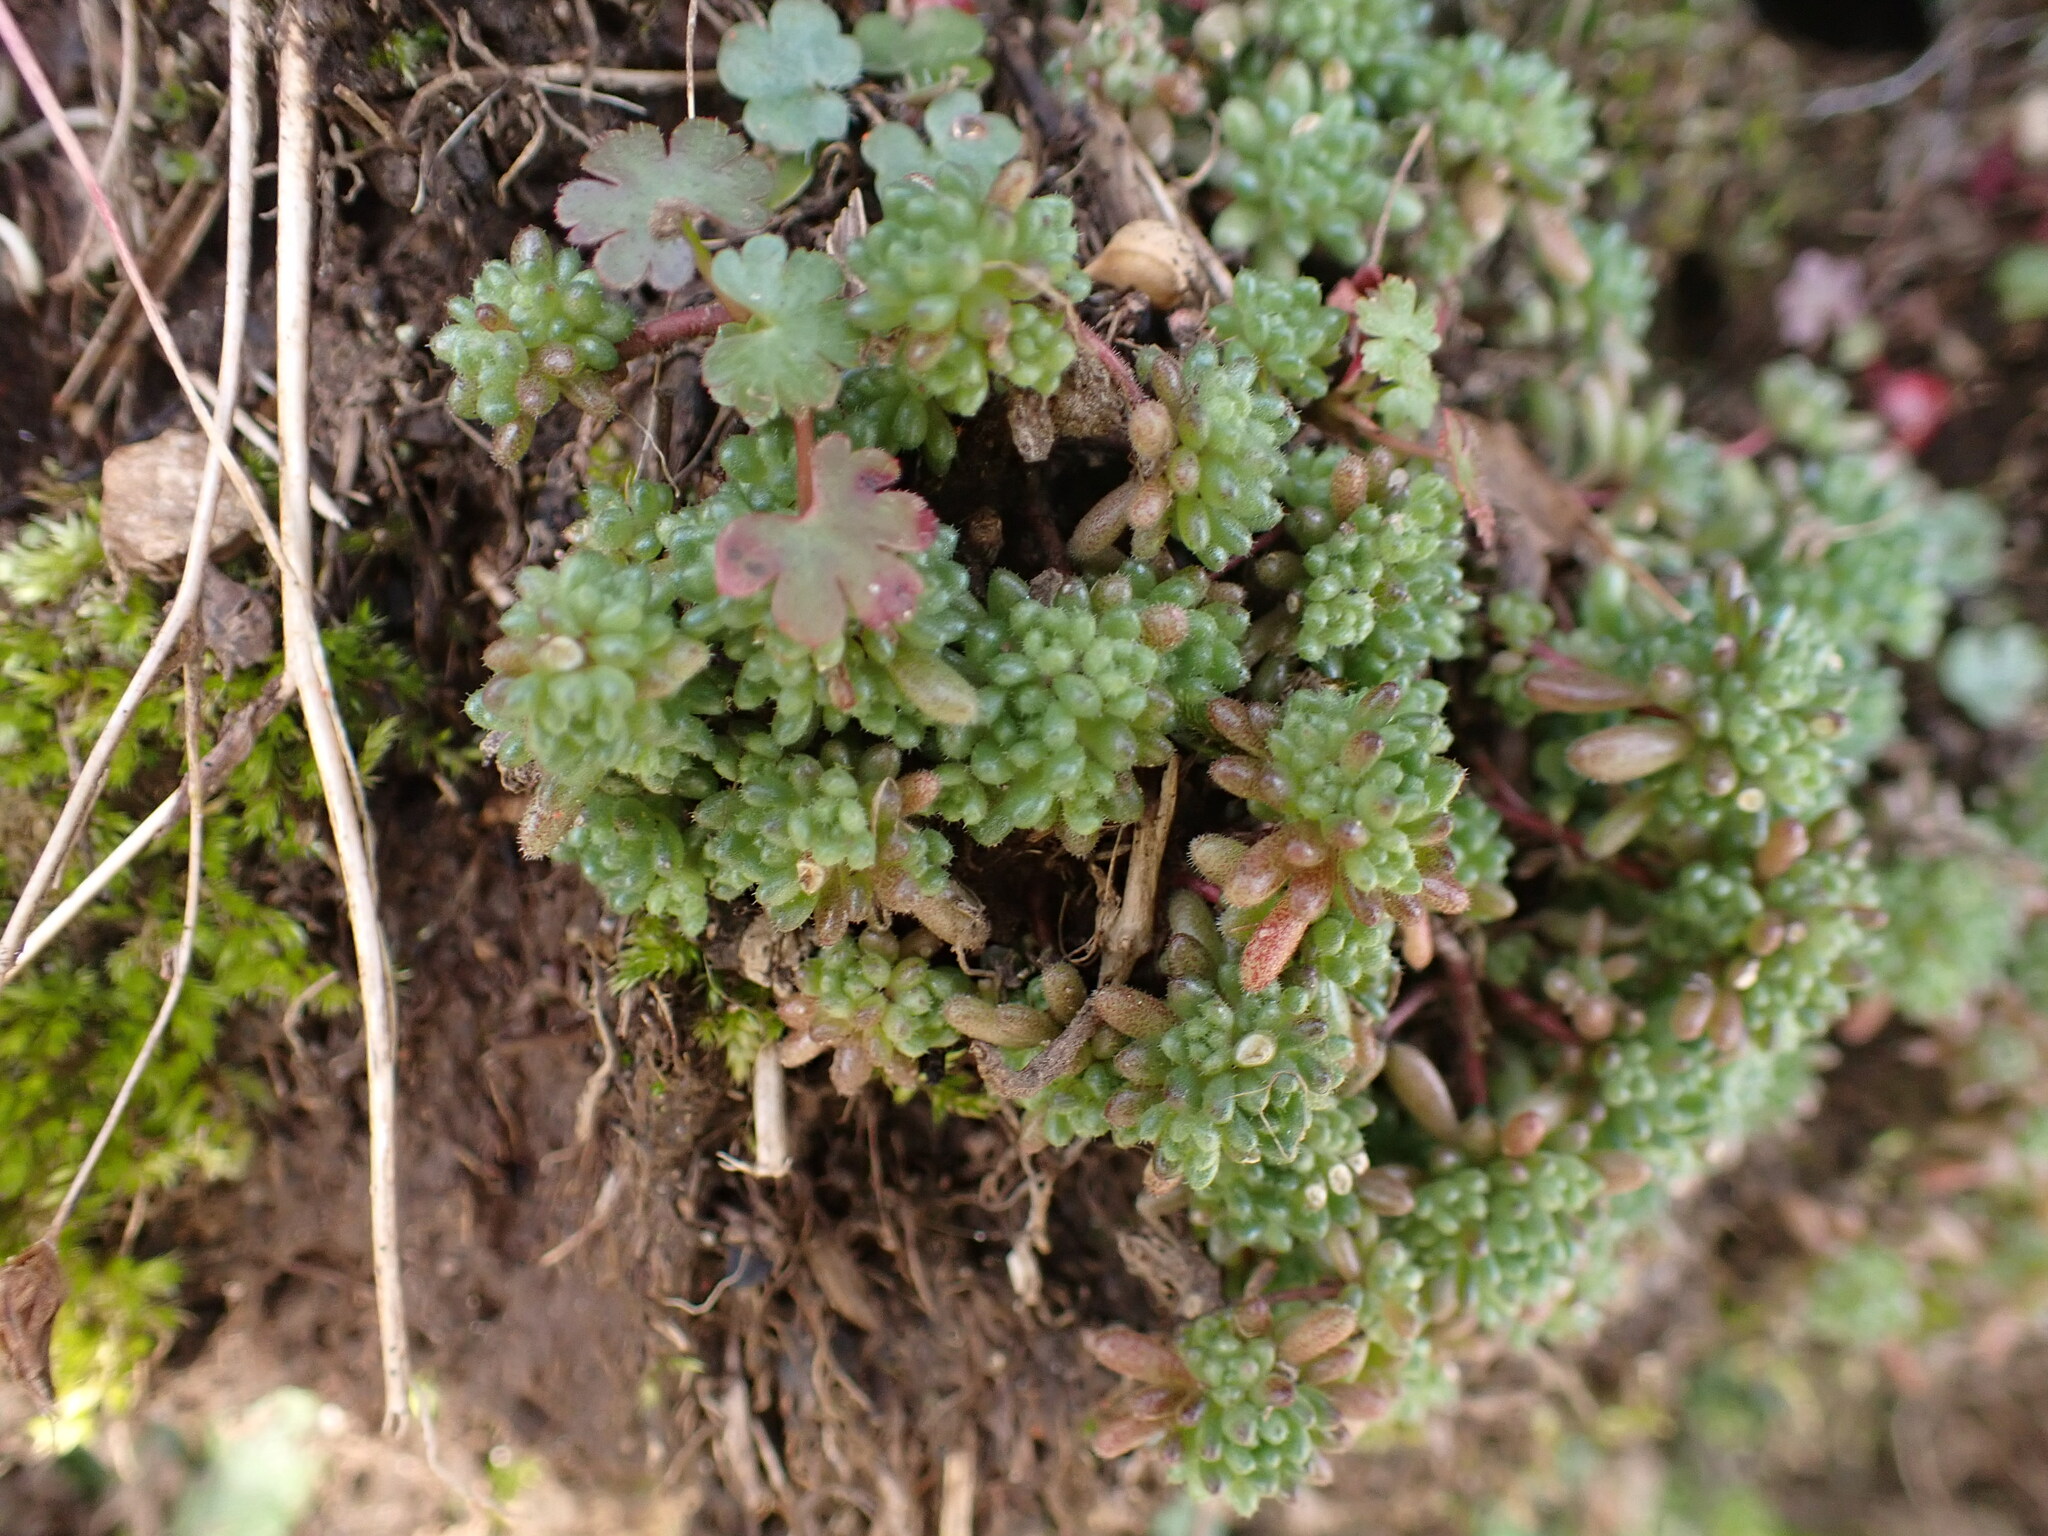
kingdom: Plantae
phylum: Tracheophyta
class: Magnoliopsida
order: Saxifragales
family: Crassulaceae
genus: Sedum
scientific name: Sedum hirsutum
